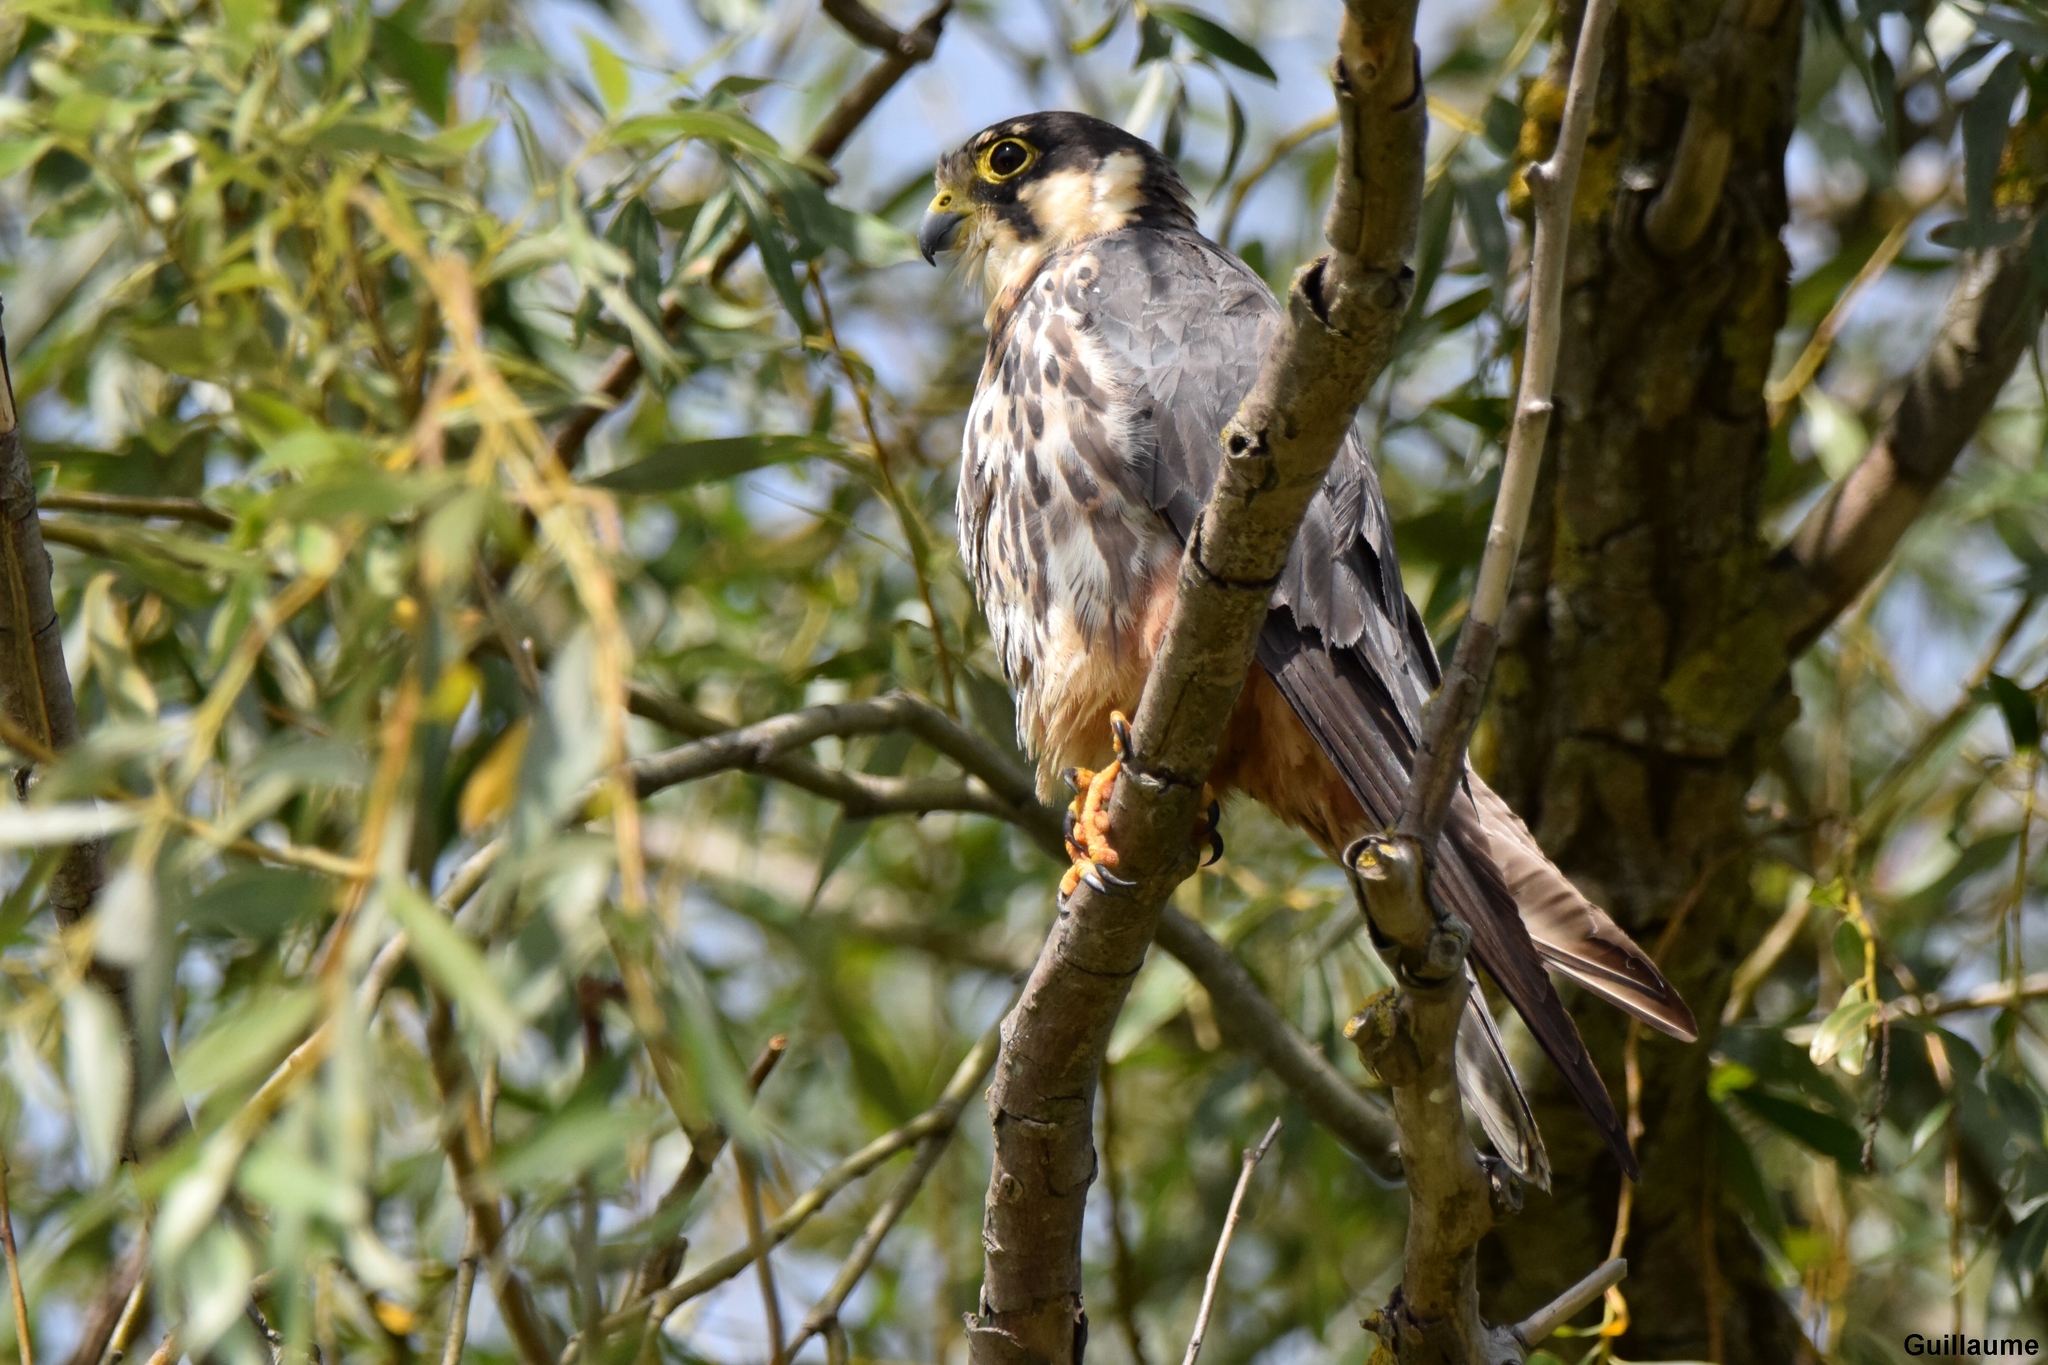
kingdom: Animalia
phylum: Chordata
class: Aves
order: Falconiformes
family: Falconidae
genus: Falco
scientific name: Falco subbuteo
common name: Eurasian hobby
